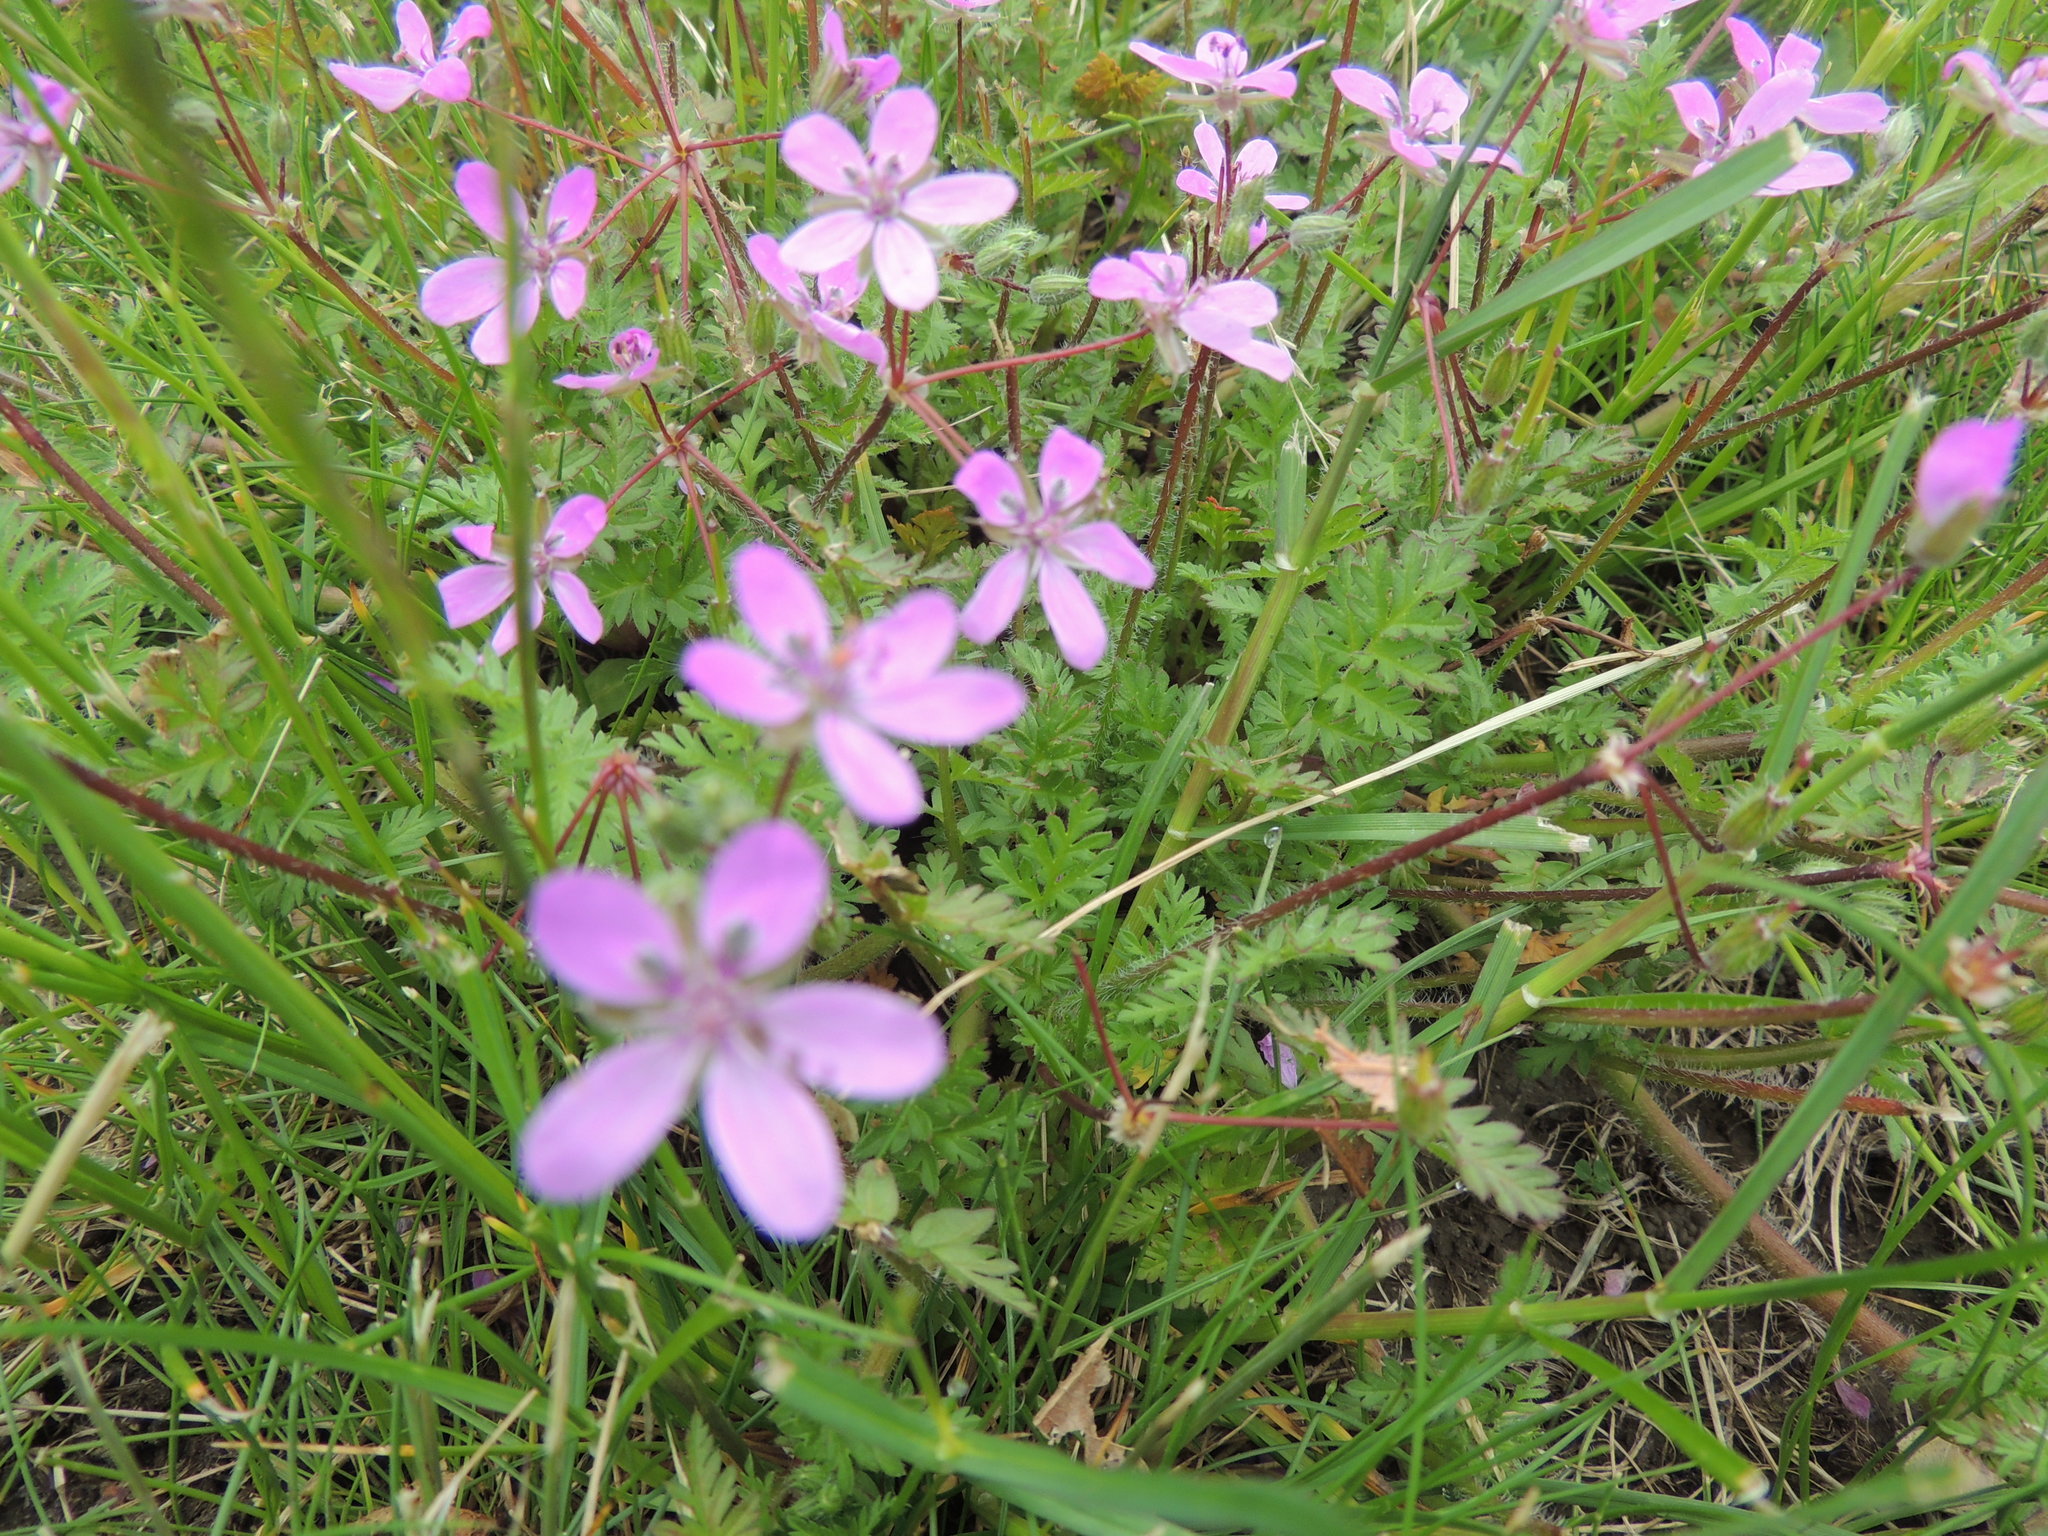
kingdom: Plantae
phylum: Tracheophyta
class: Magnoliopsida
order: Geraniales
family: Geraniaceae
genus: Erodium
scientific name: Erodium cicutarium
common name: Common stork's-bill
